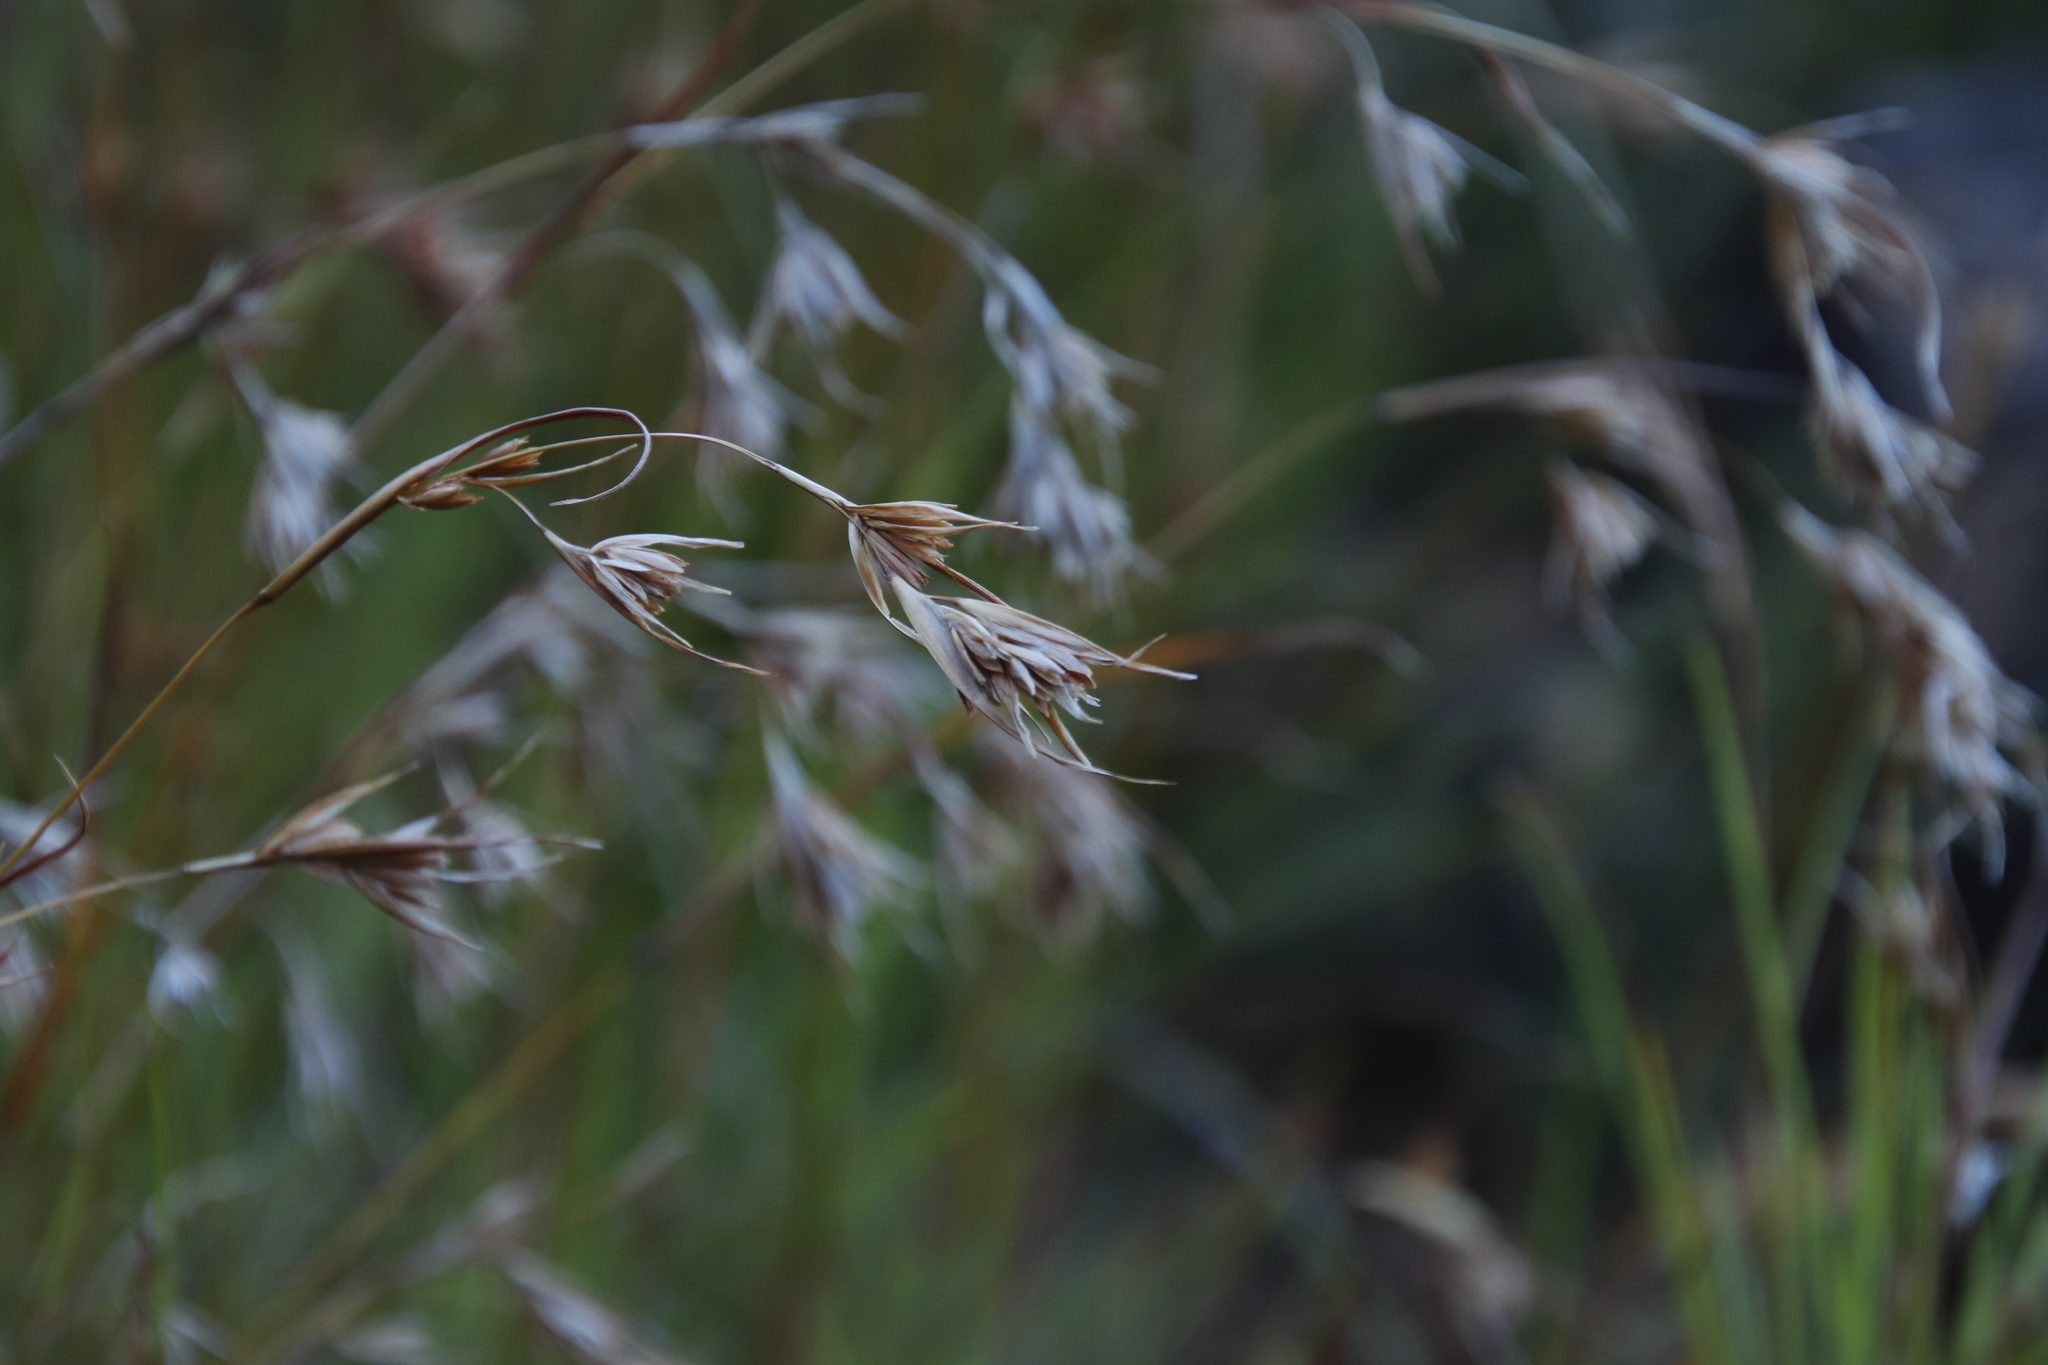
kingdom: Plantae
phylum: Tracheophyta
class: Liliopsida
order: Poales
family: Poaceae
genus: Themeda
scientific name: Themeda triandra
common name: Kangaroo grass
